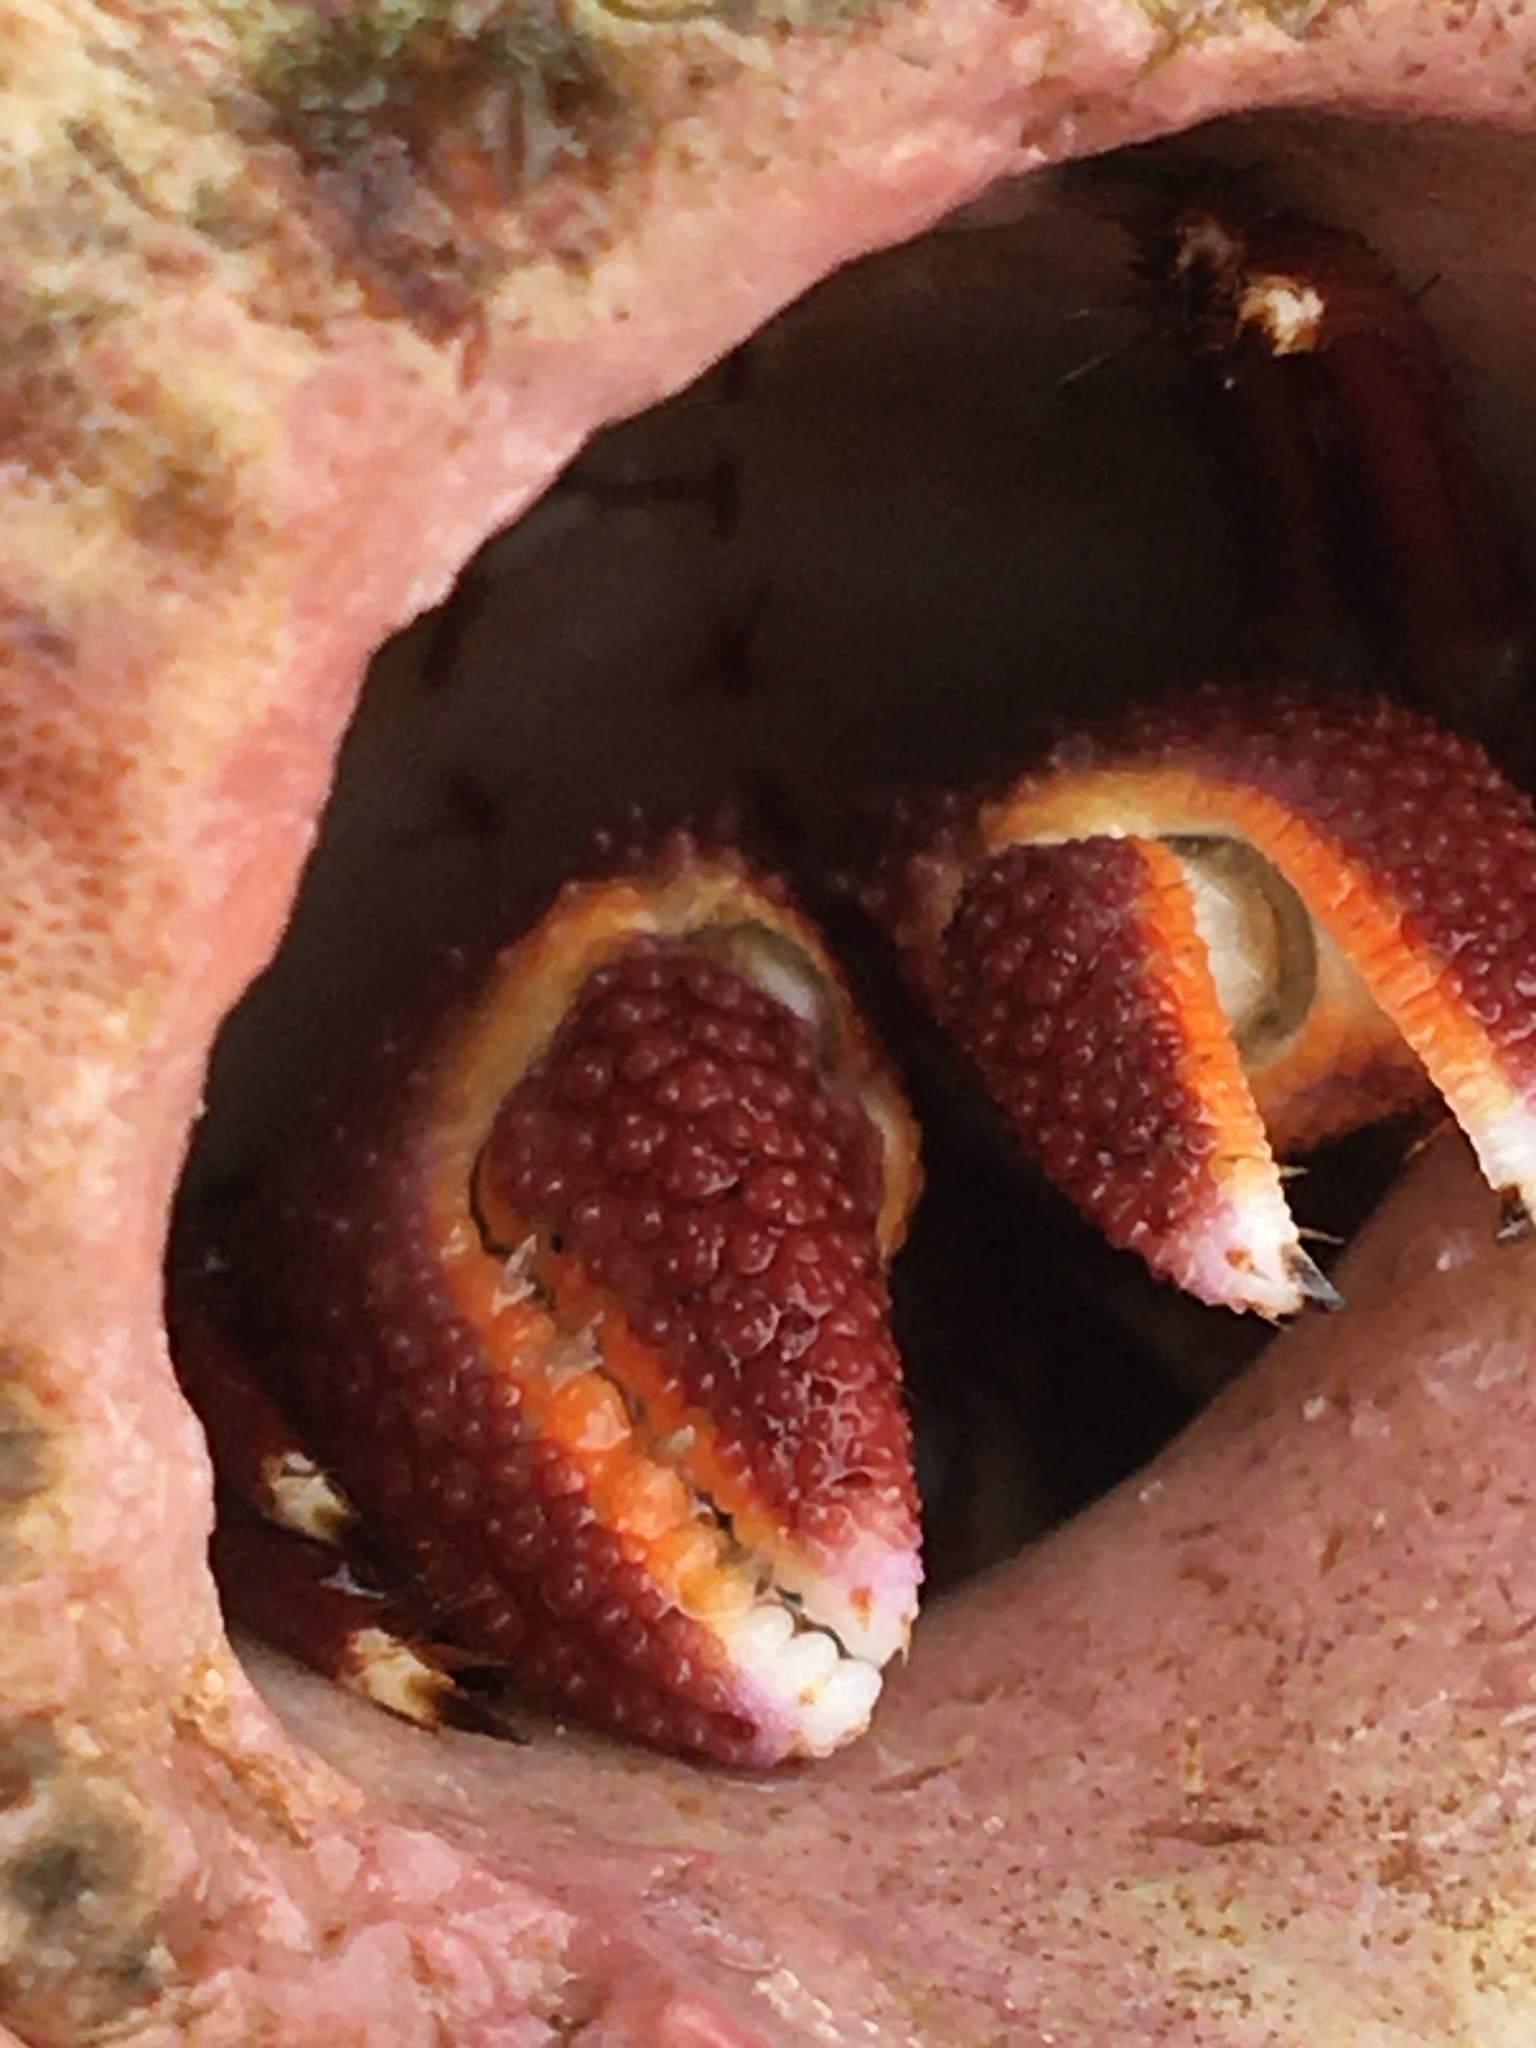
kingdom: Animalia
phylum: Arthropoda
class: Malacostraca
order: Decapoda
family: Diogenidae
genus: Petrochirus
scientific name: Petrochirus diogenes
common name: Giant hermit crab
